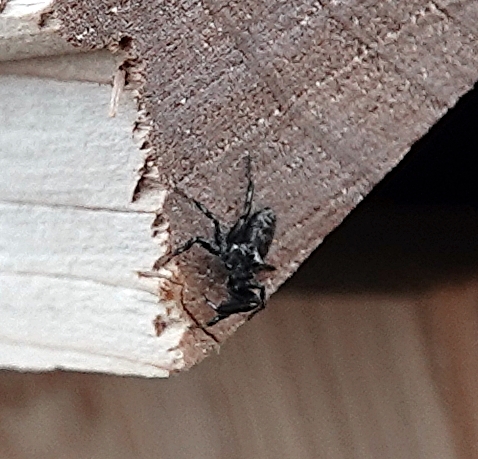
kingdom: Animalia
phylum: Arthropoda
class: Arachnida
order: Araneae
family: Salticidae
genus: Tutelina
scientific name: Tutelina harti
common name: Hart's jumping spider
